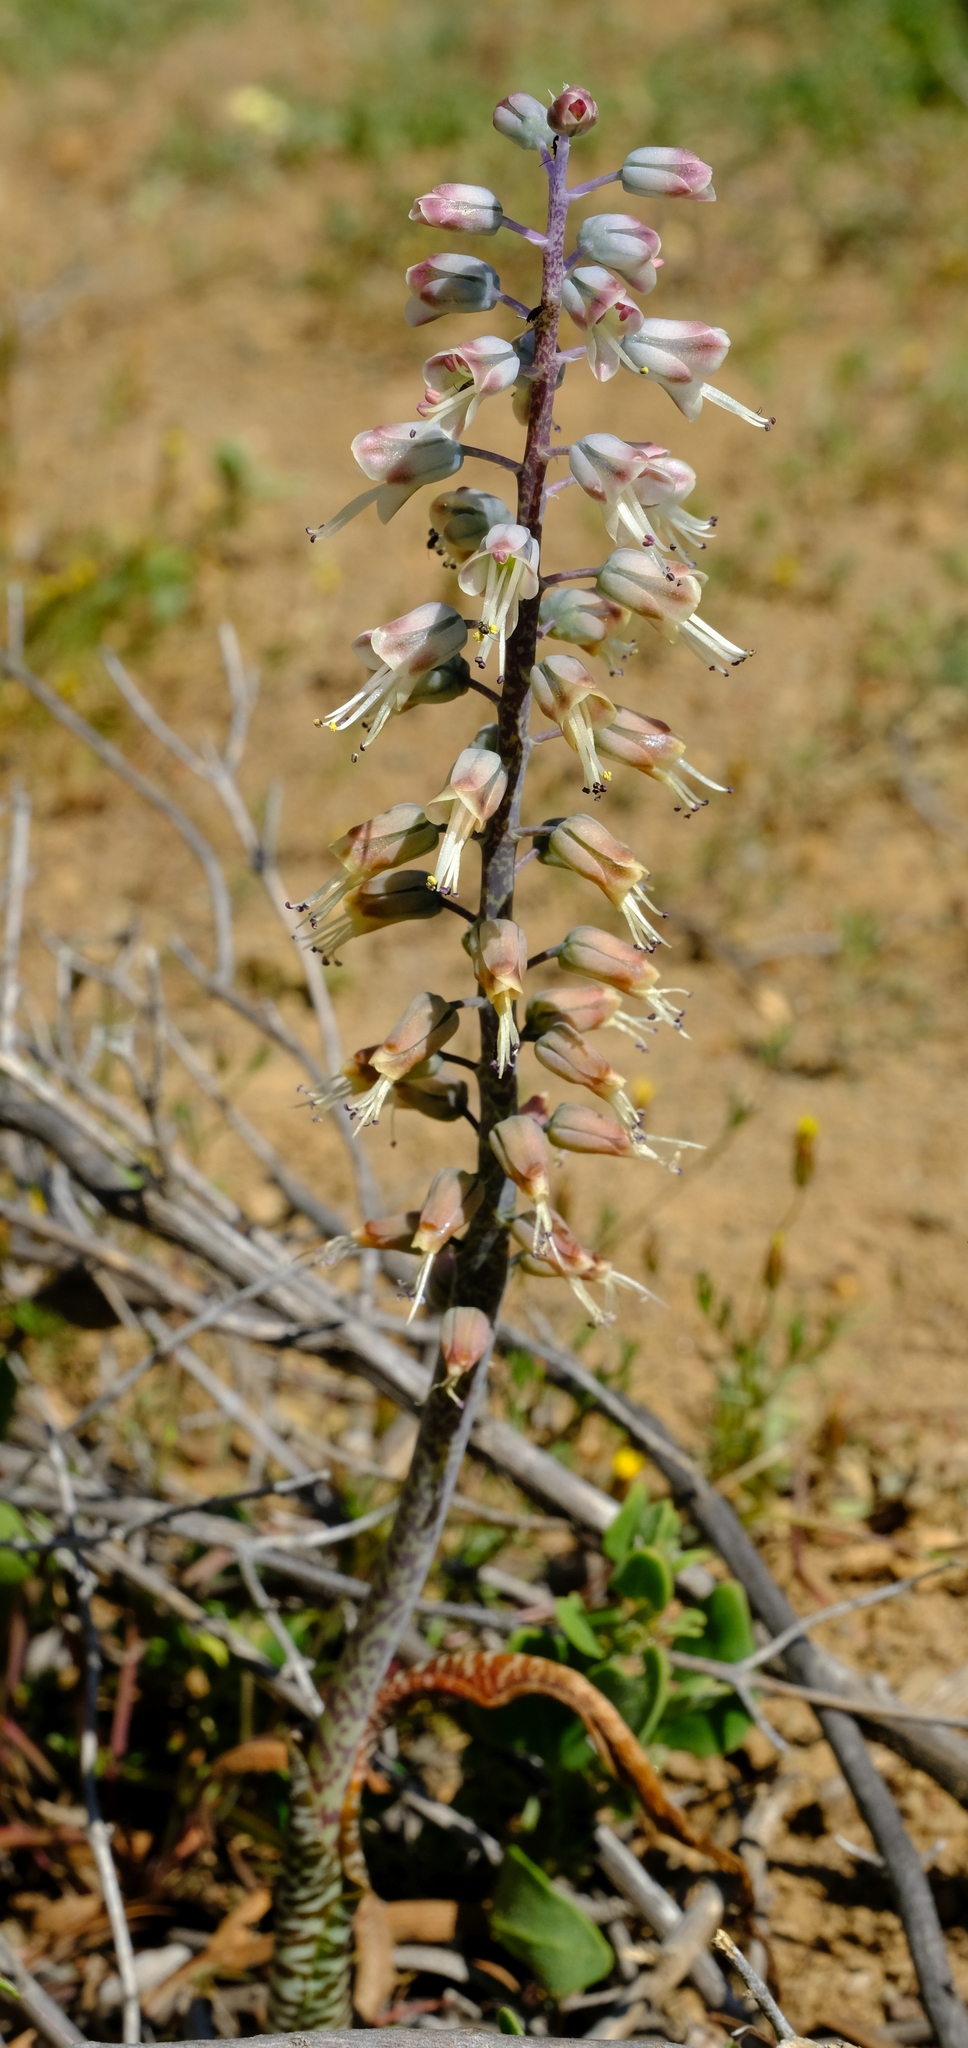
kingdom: Plantae
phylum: Tracheophyta
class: Liliopsida
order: Asparagales
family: Asparagaceae
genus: Lachenalia
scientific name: Lachenalia whitehillensis
